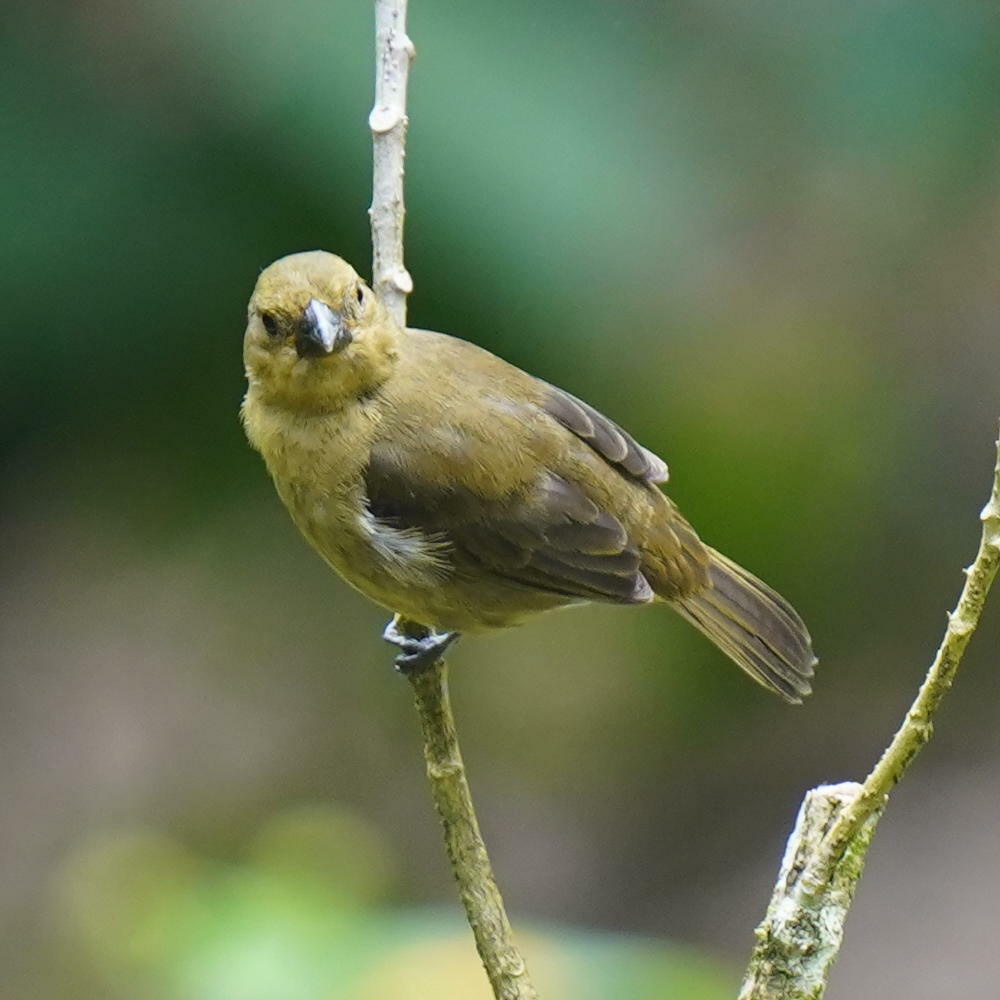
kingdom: Animalia
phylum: Chordata
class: Aves
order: Passeriformes
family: Thraupidae
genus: Sporophila
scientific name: Sporophila corvina
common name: Variable seedeater
